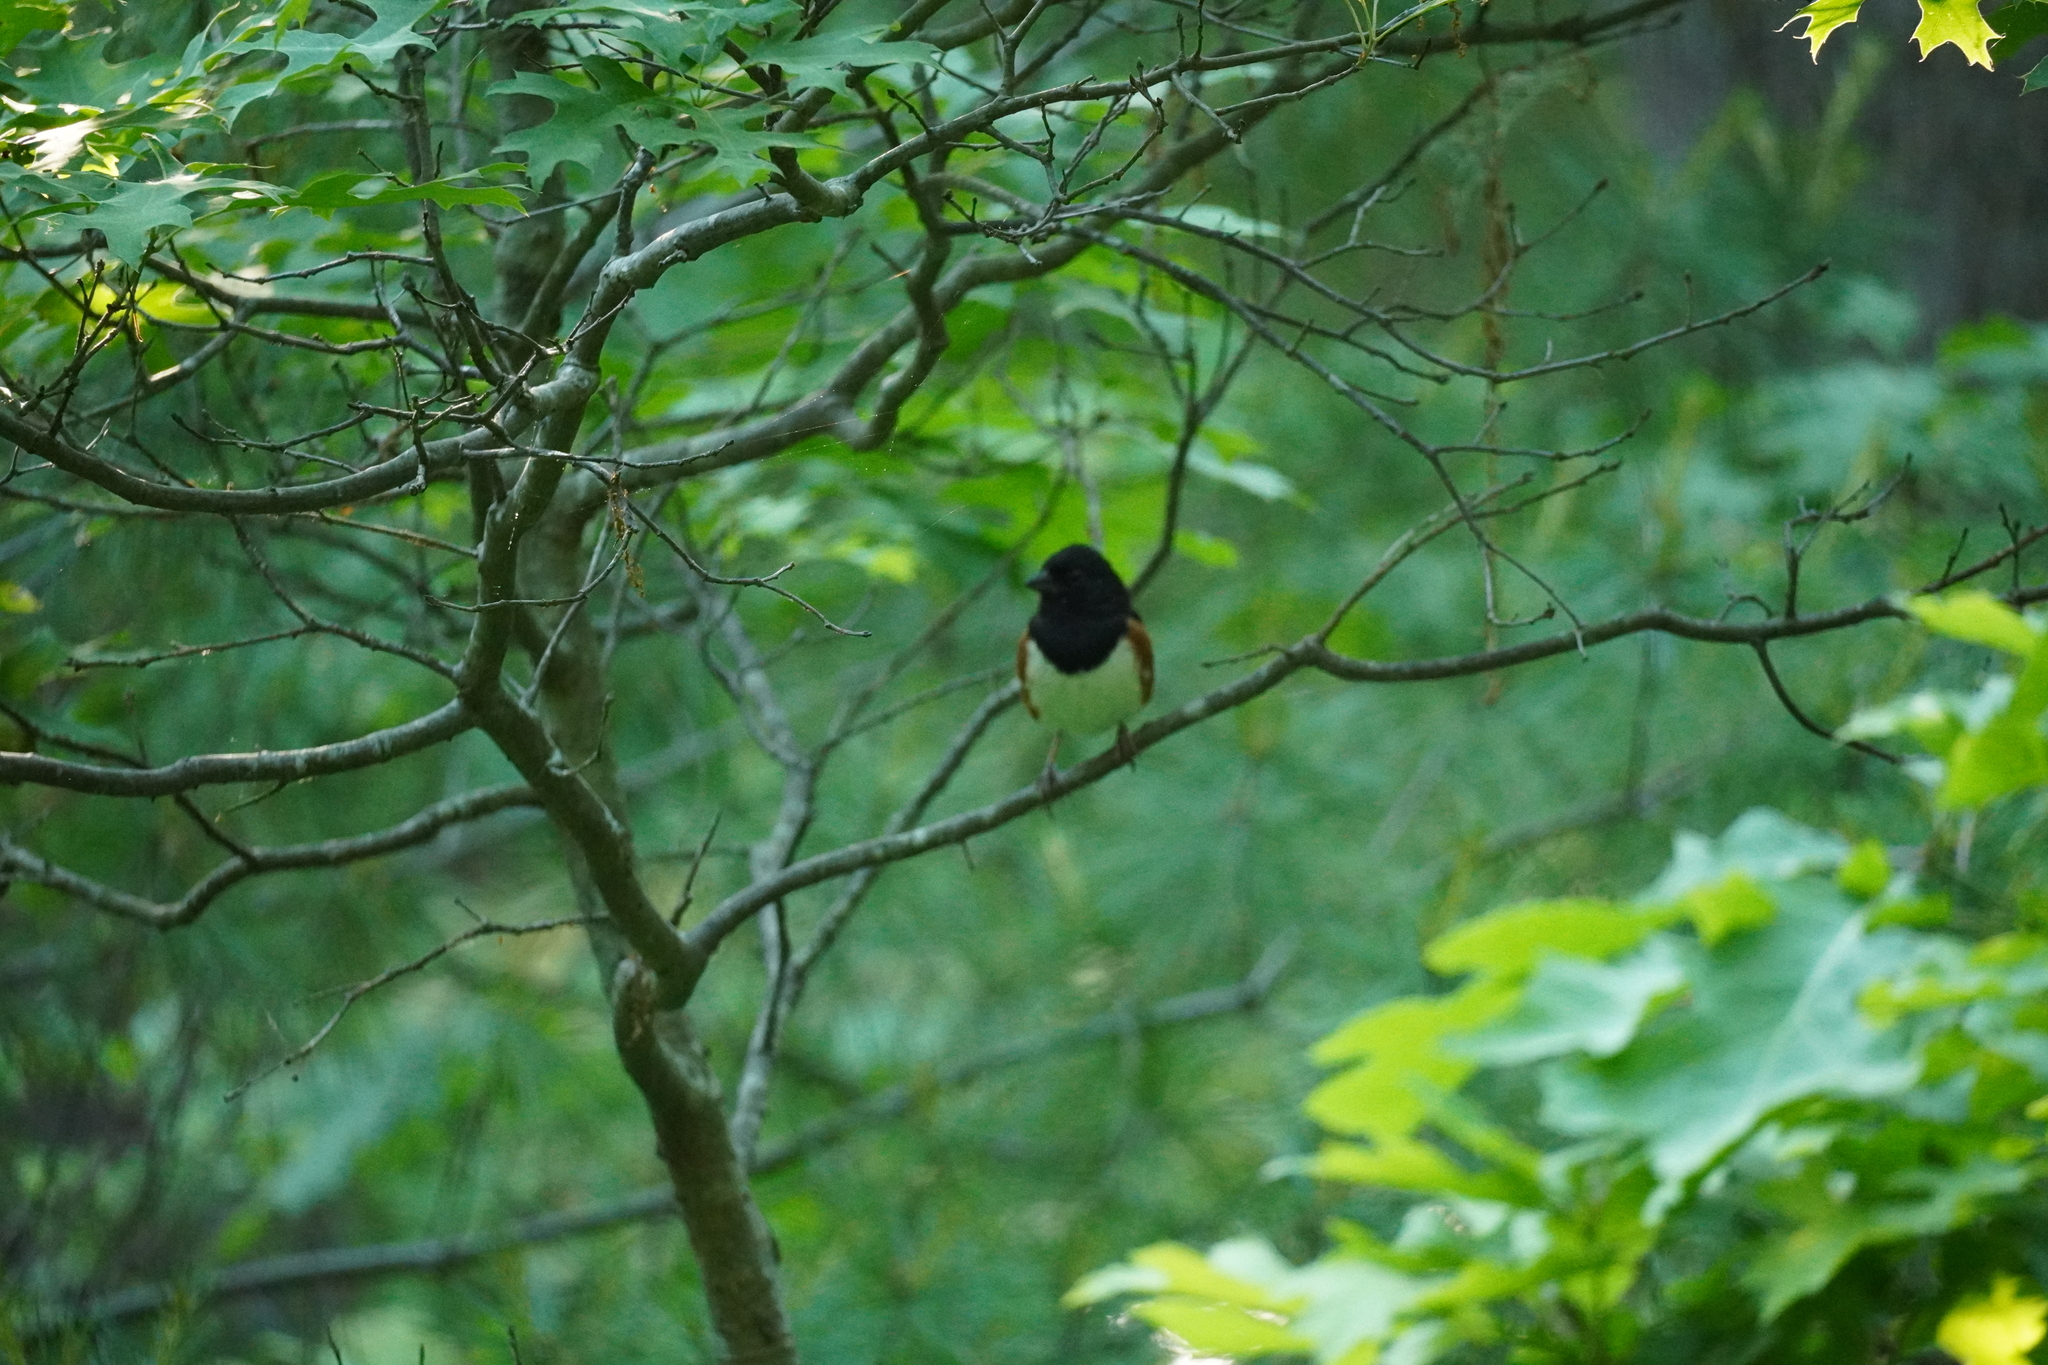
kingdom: Animalia
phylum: Chordata
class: Aves
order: Passeriformes
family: Passerellidae
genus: Pipilo
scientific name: Pipilo erythrophthalmus
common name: Eastern towhee
